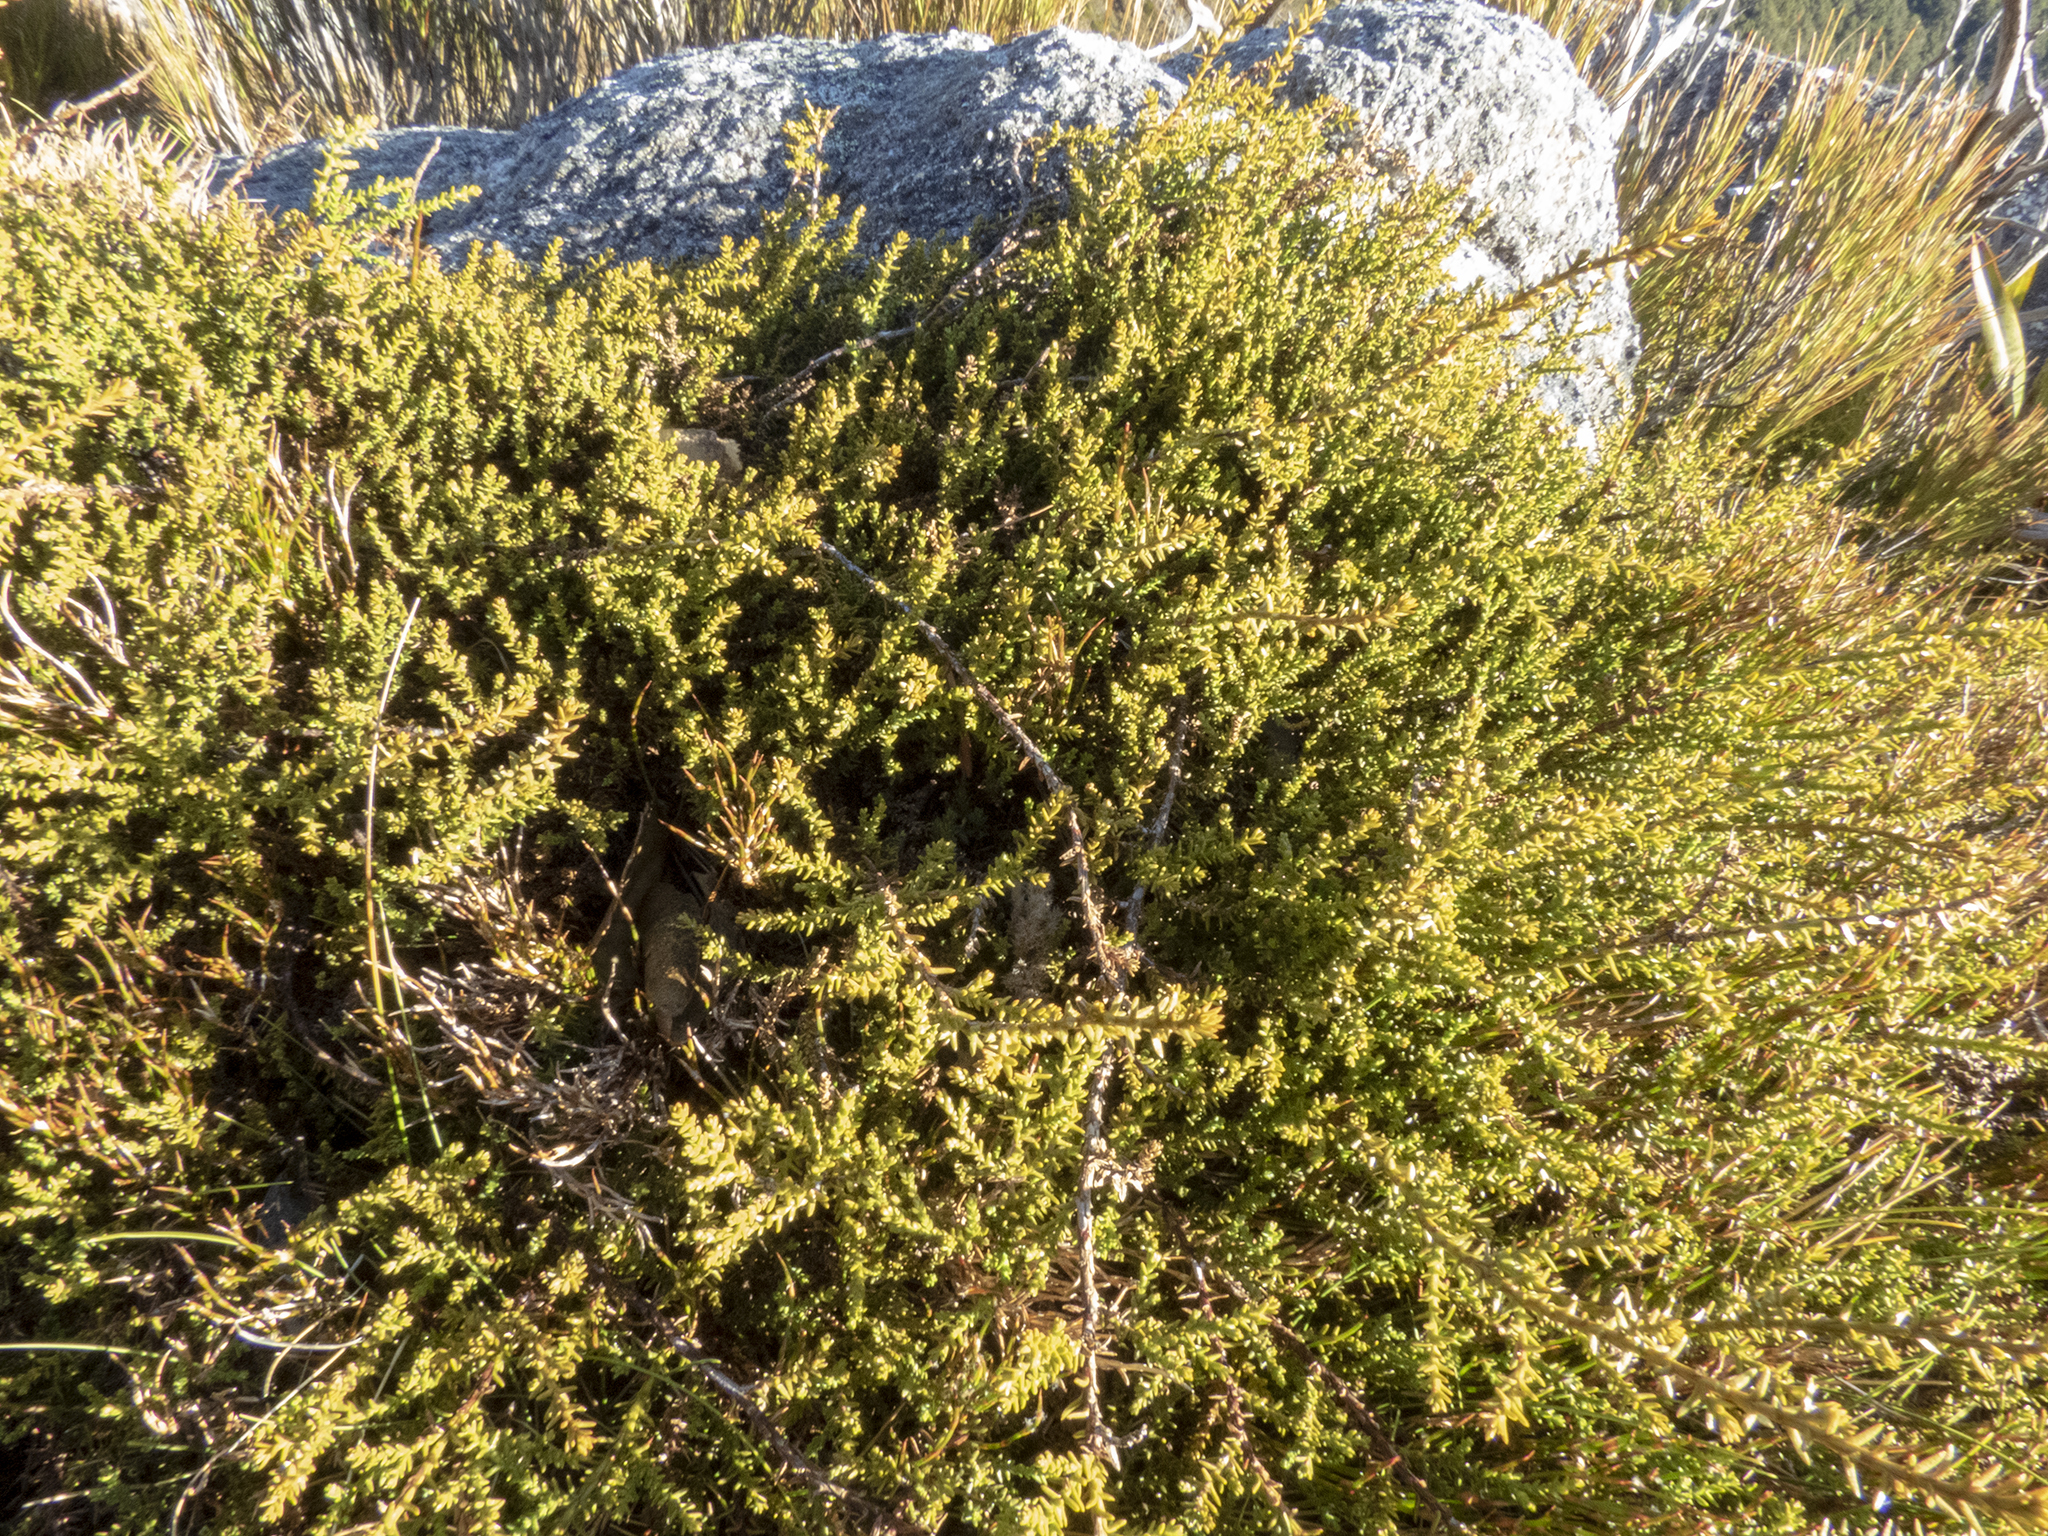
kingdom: Plantae
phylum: Tracheophyta
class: Pinopsida
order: Pinales
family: Podocarpaceae
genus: Lepidothamnus
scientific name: Lepidothamnus laxifolius
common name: Pygmy pine
